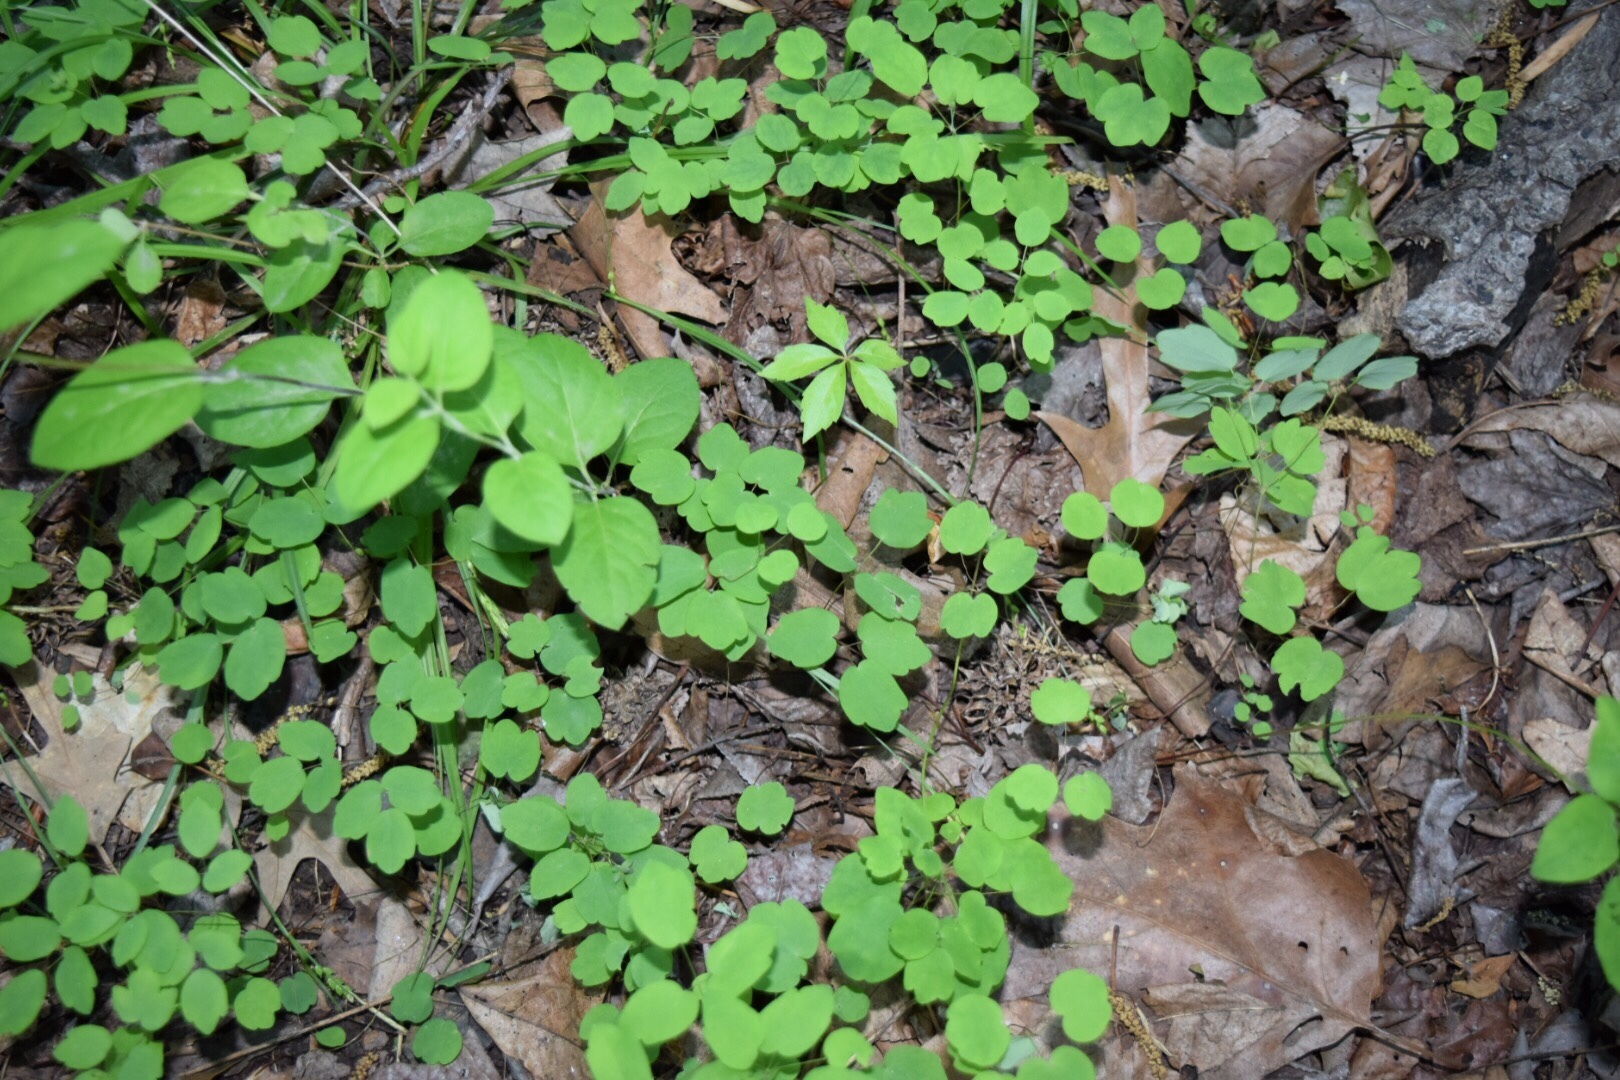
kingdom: Plantae
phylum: Tracheophyta
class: Magnoliopsida
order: Ranunculales
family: Ranunculaceae
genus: Thalictrum
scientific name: Thalictrum thalictroides
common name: Rue-anemone
